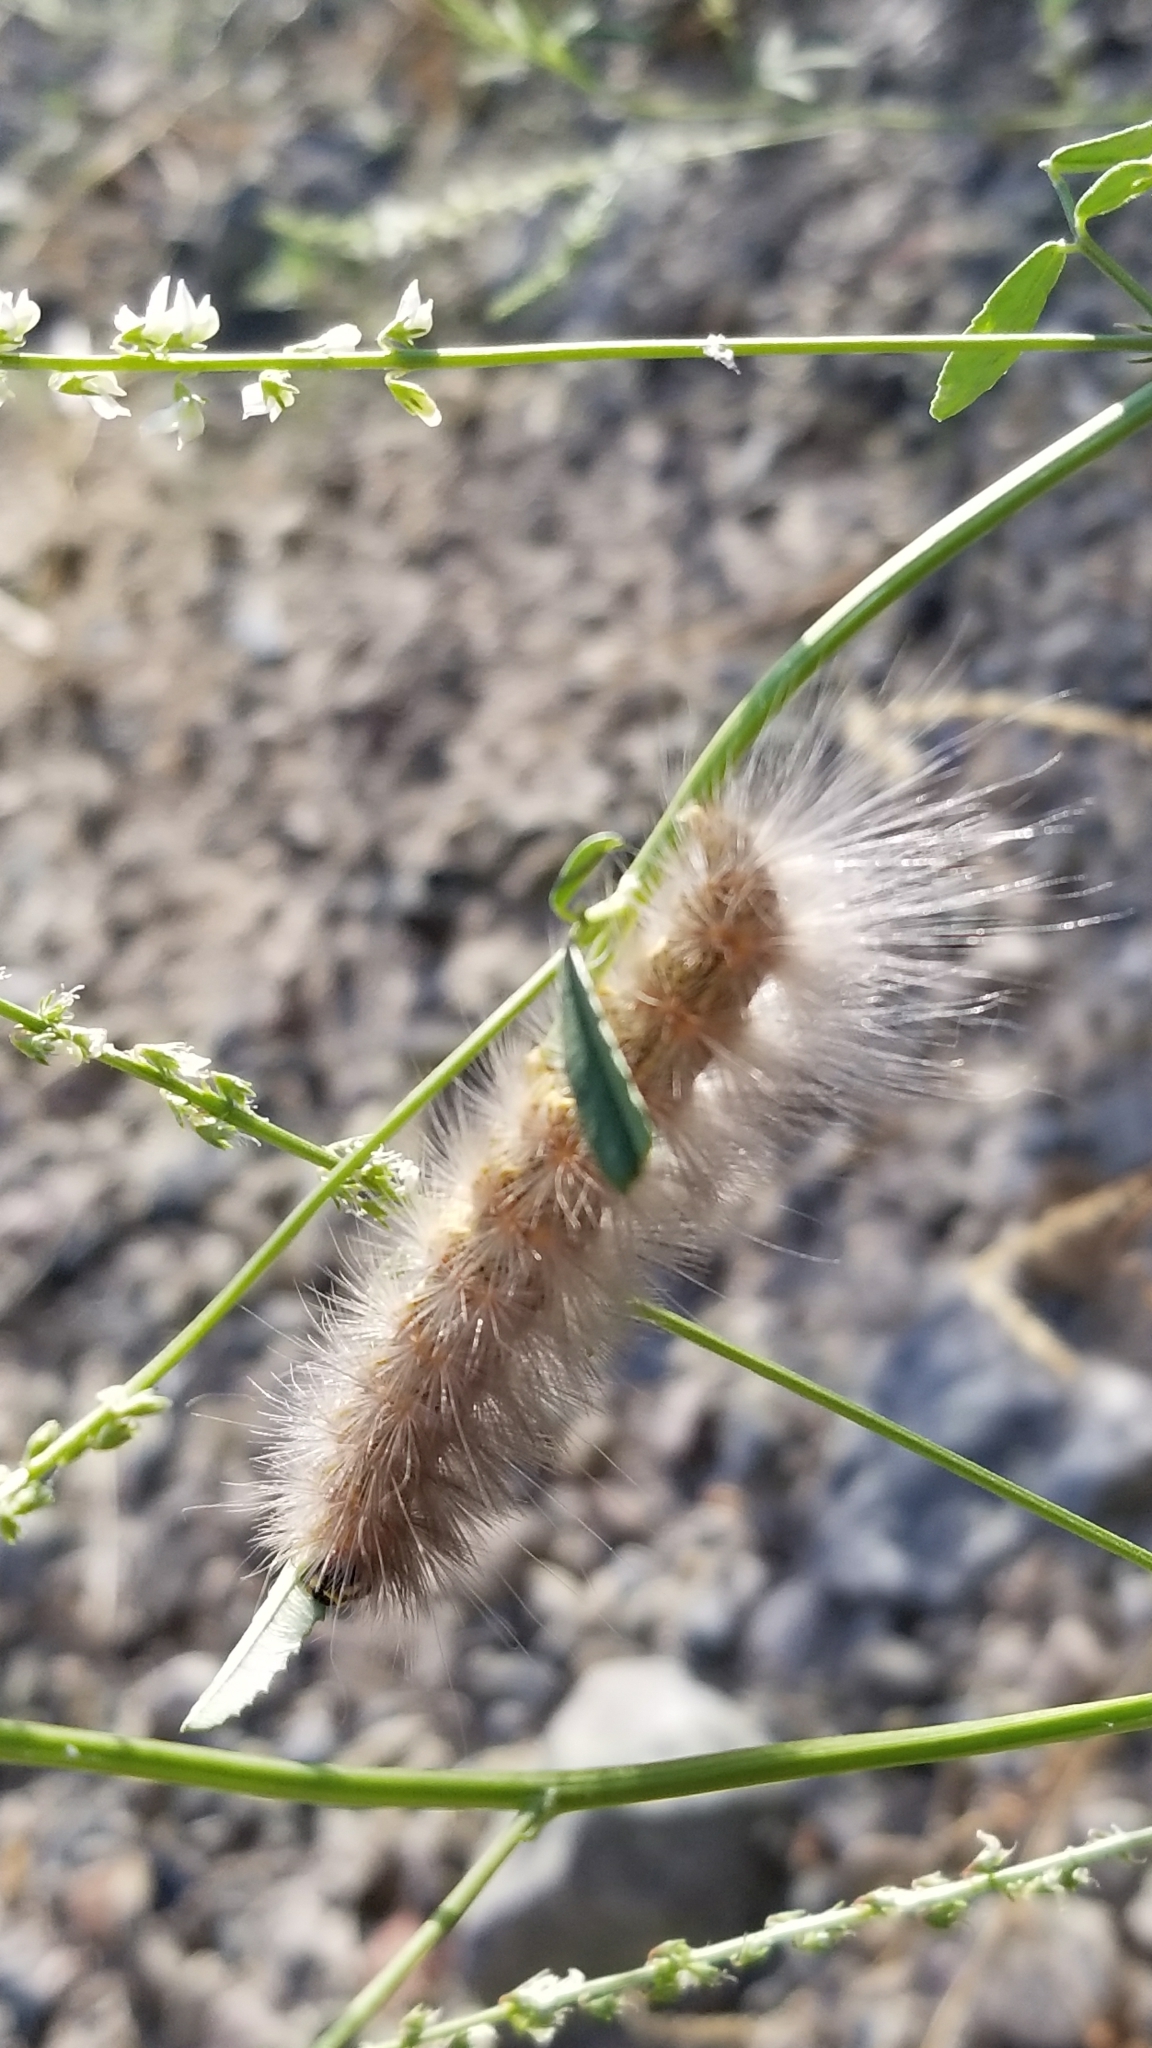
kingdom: Animalia
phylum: Arthropoda
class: Insecta
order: Lepidoptera
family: Erebidae
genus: Estigmene
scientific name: Estigmene acrea
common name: Salt marsh moth
